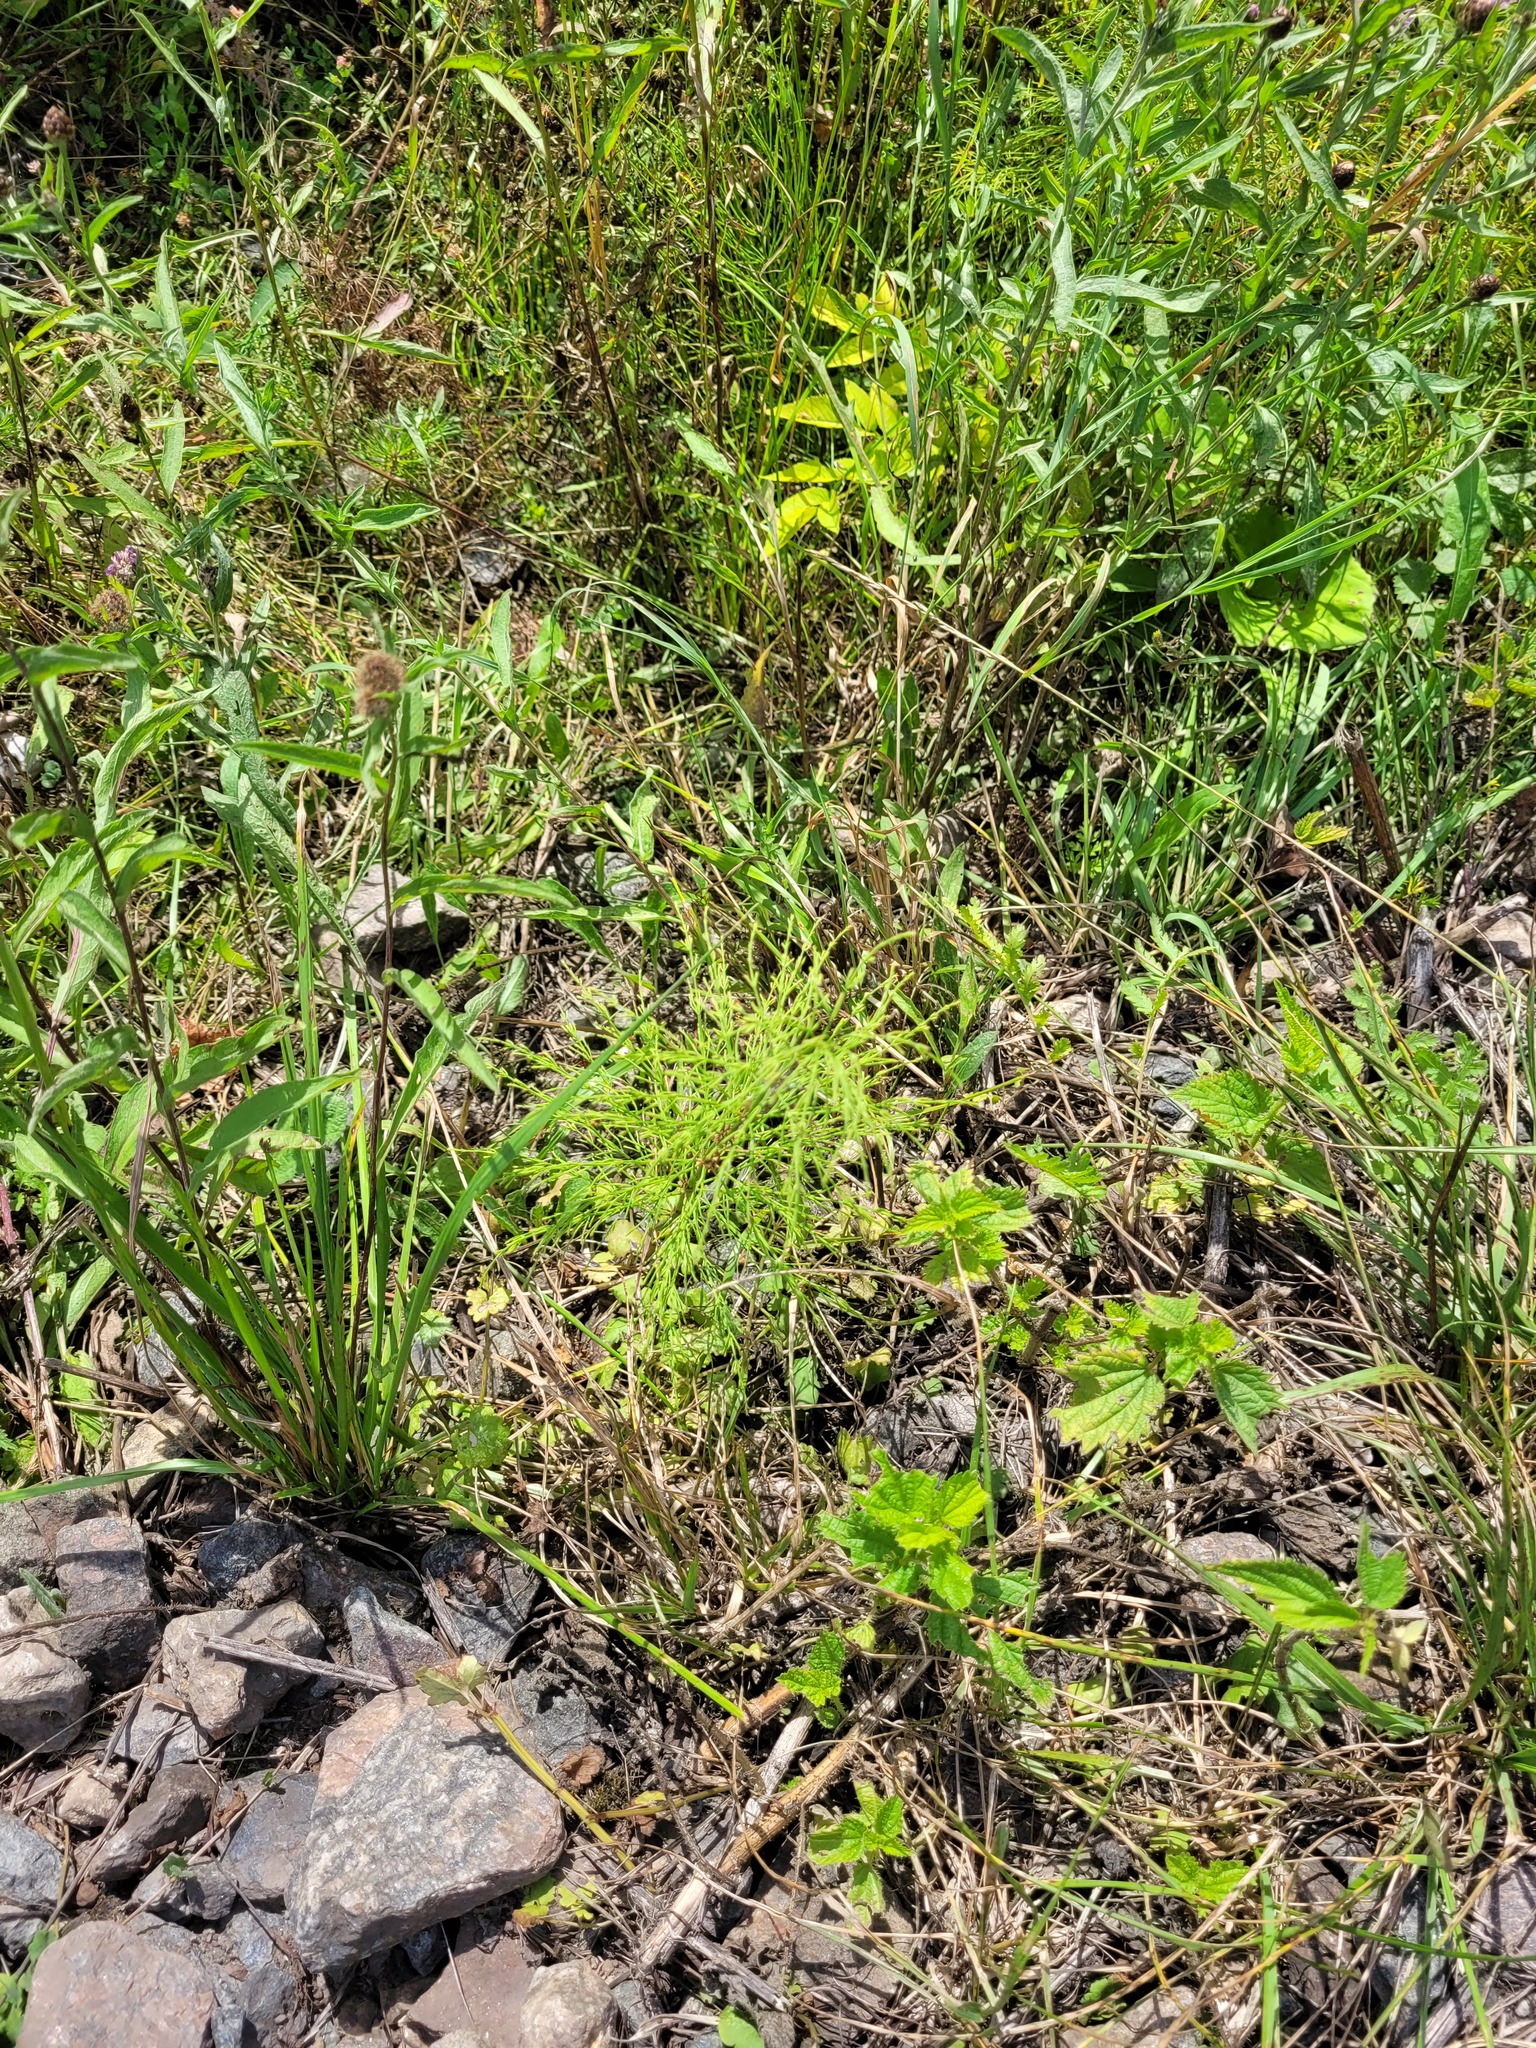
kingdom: Plantae
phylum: Tracheophyta
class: Polypodiopsida
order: Equisetales
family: Equisetaceae
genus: Equisetum
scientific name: Equisetum sylvaticum
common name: Wood horsetail
